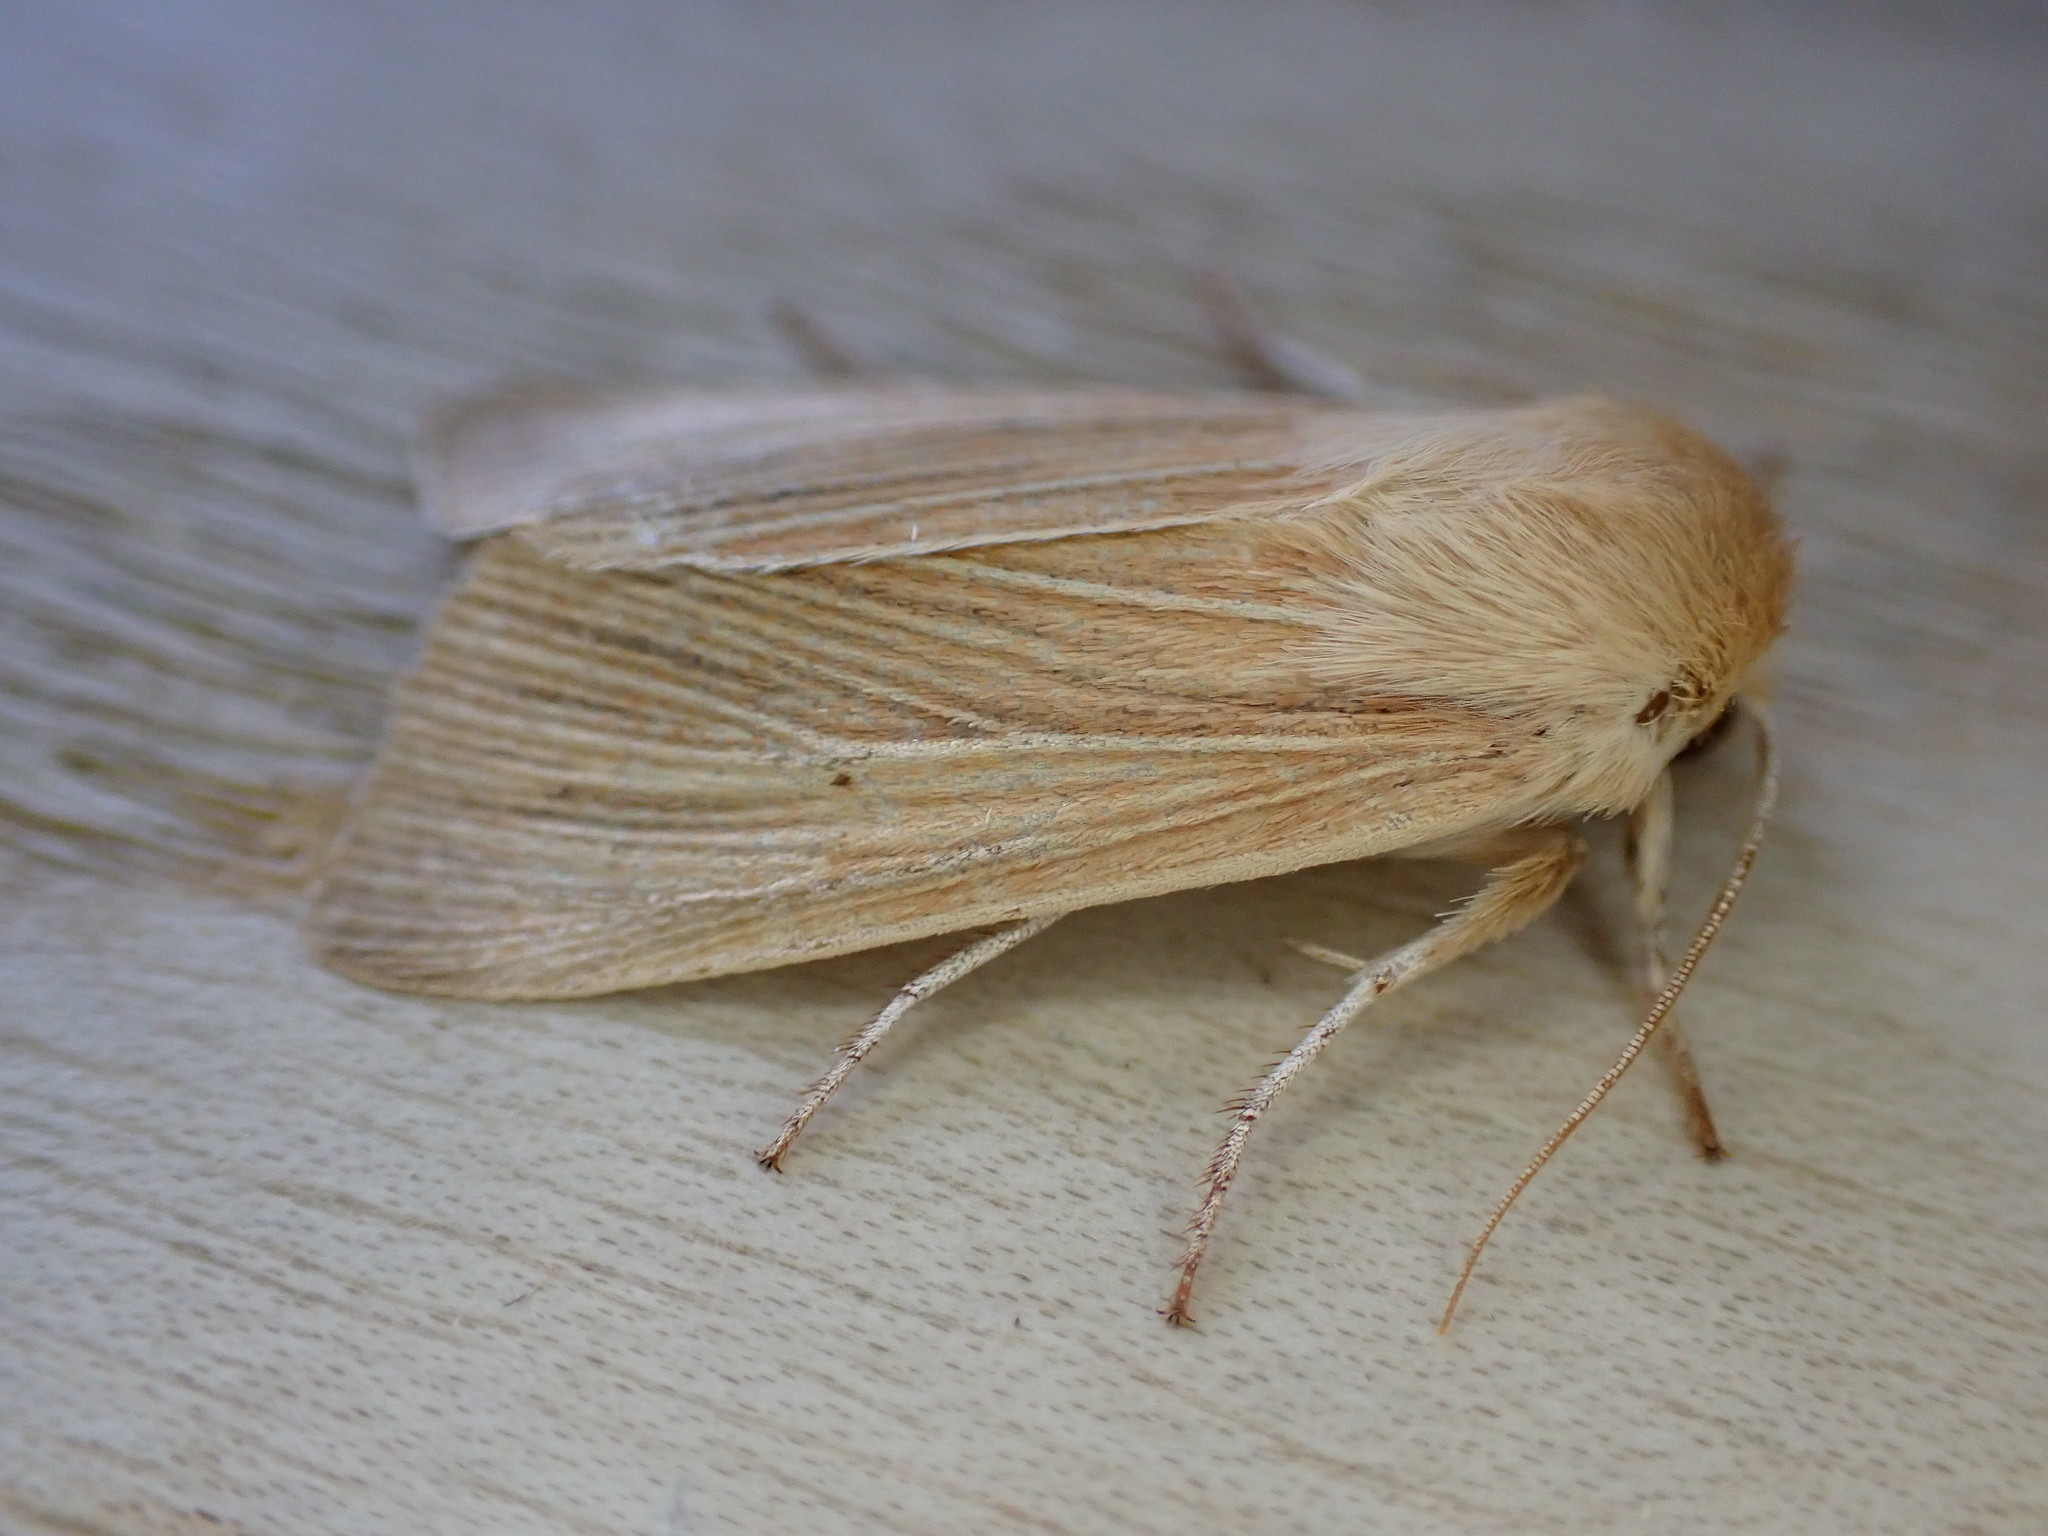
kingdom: Animalia
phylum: Arthropoda
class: Insecta
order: Lepidoptera
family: Noctuidae
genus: Mythimna
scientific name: Mythimna pallens
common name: Common wainscot
